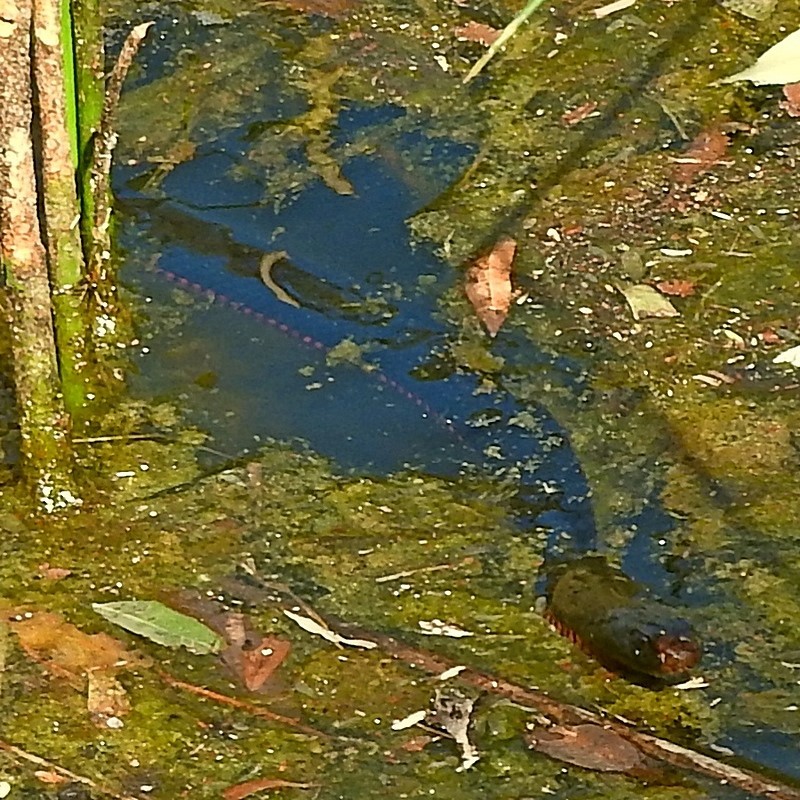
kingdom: Animalia
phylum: Chordata
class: Squamata
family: Elapidae
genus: Pseudechis
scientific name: Pseudechis porphyriacus
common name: Australian black snake
